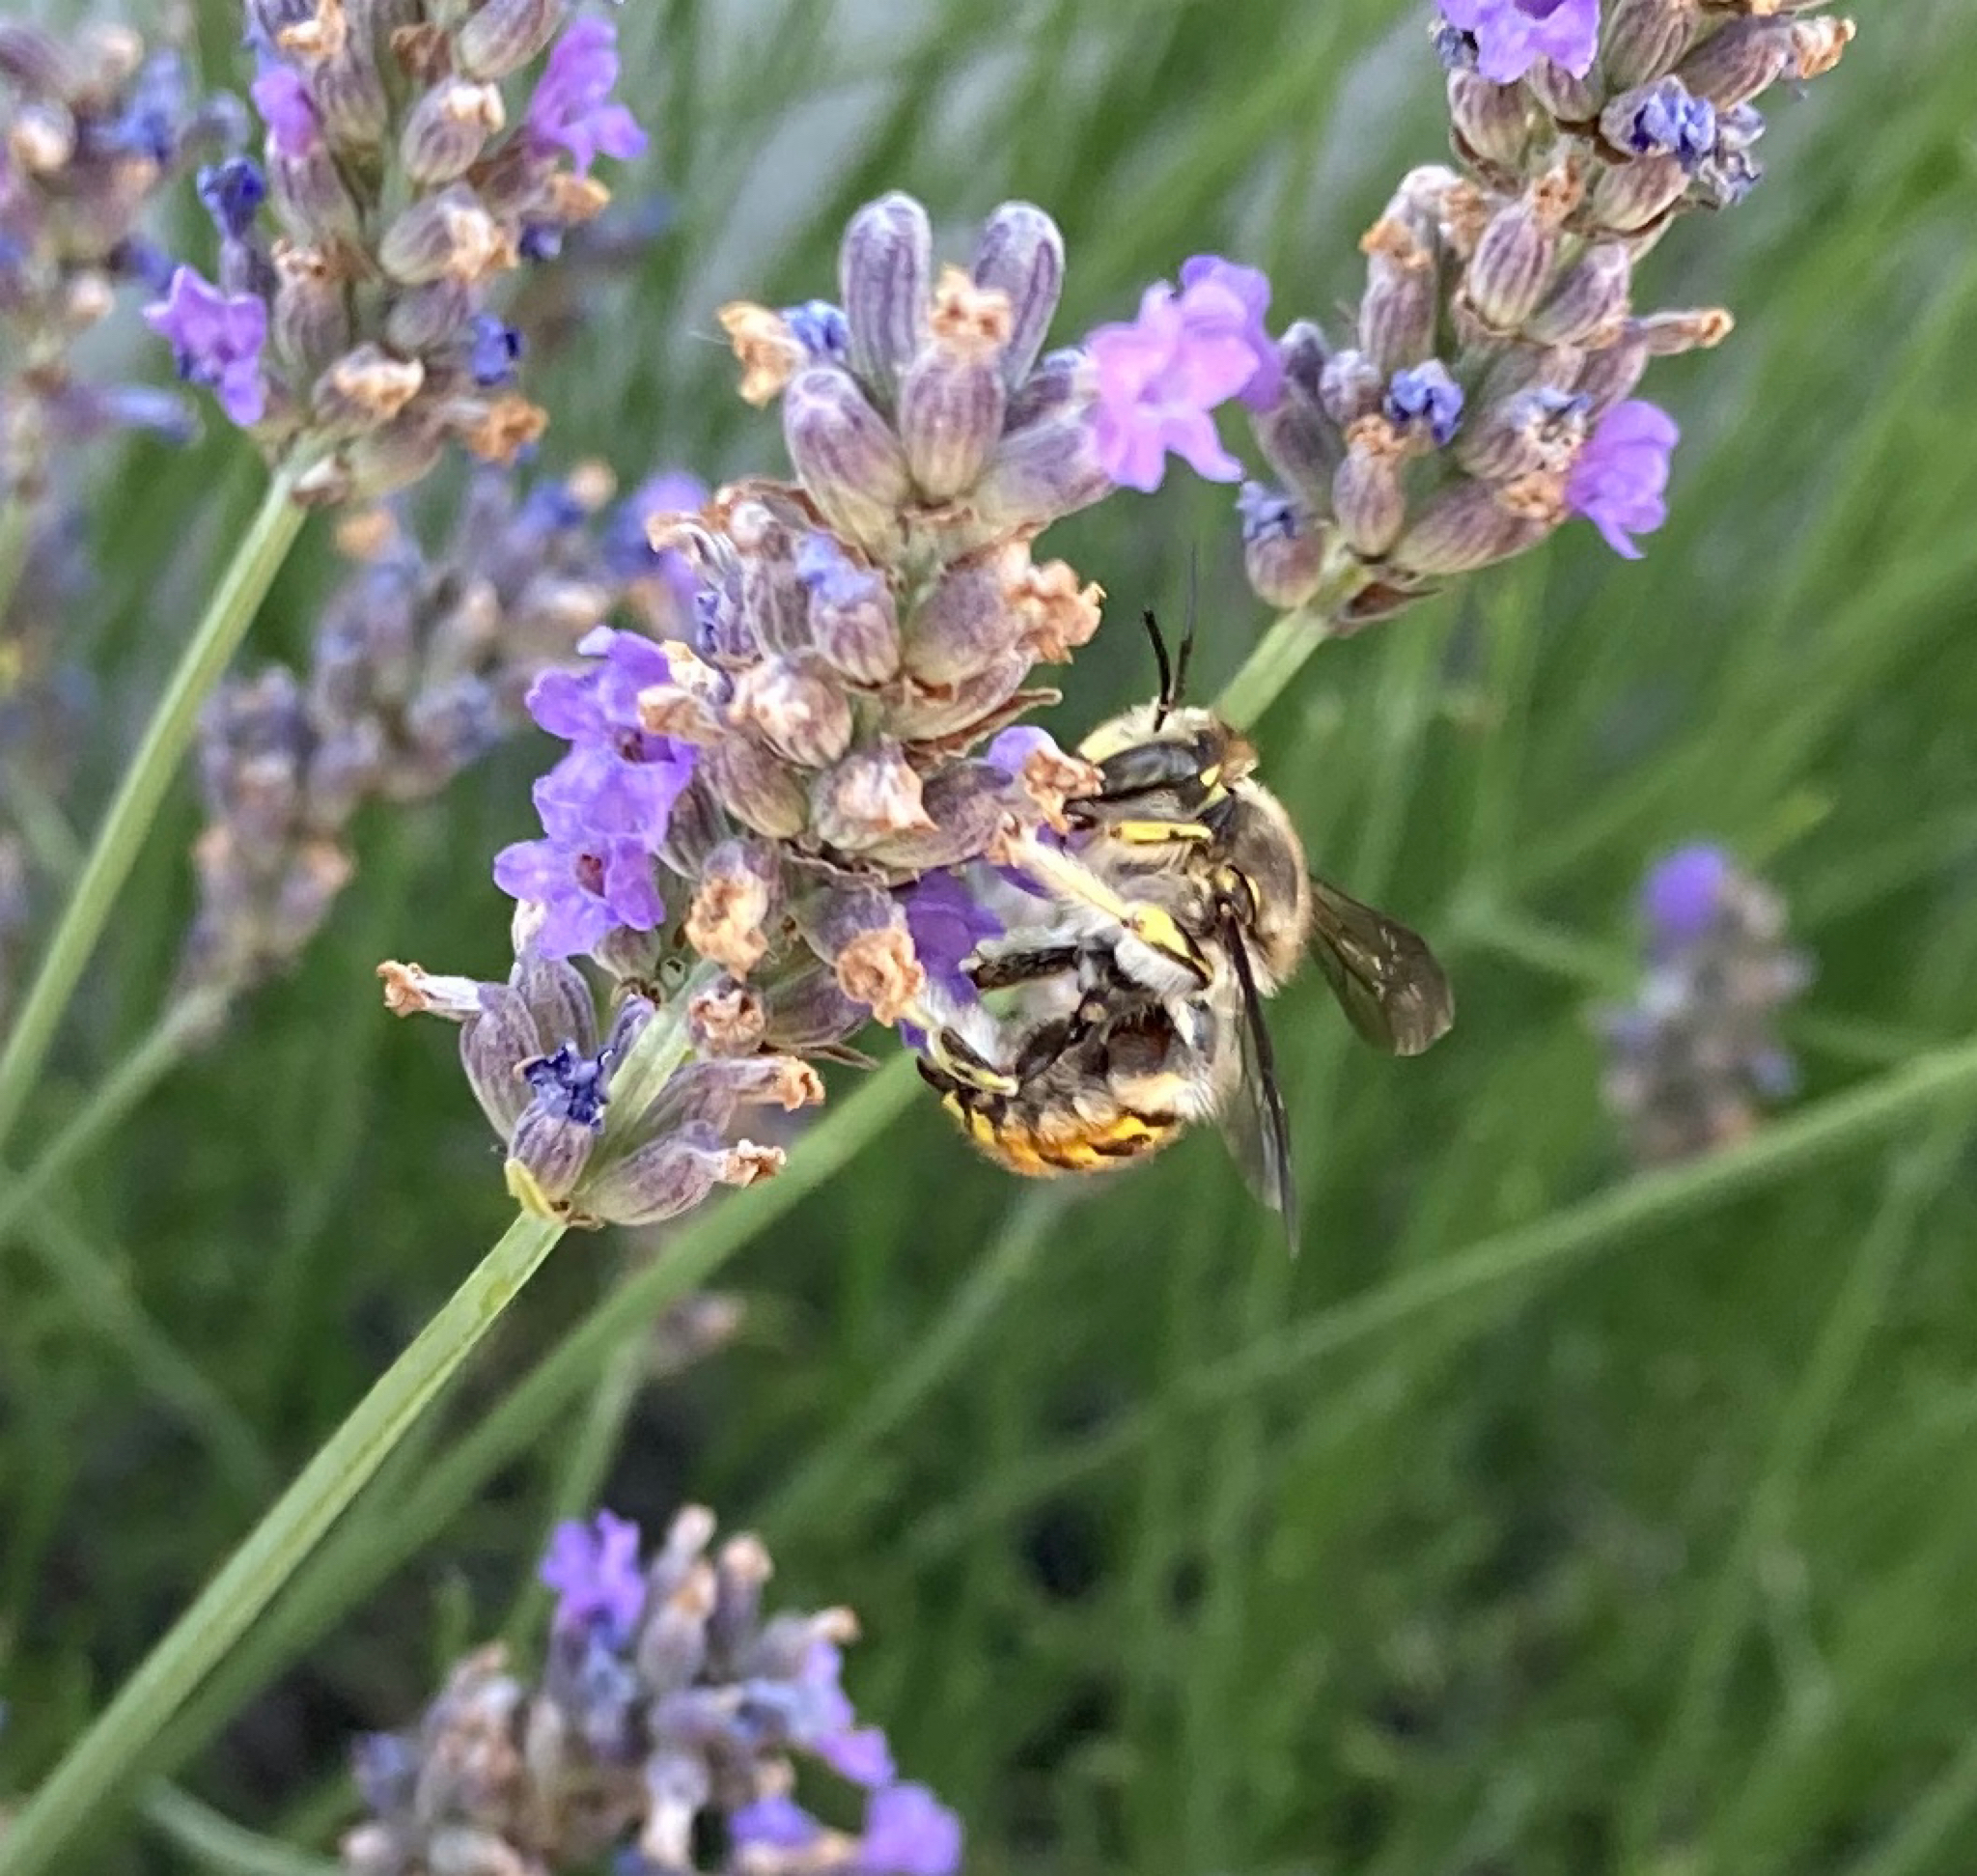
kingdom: Animalia
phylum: Arthropoda
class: Insecta
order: Hymenoptera
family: Megachilidae
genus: Anthidium
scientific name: Anthidium manicatum
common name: Wool carder bee
